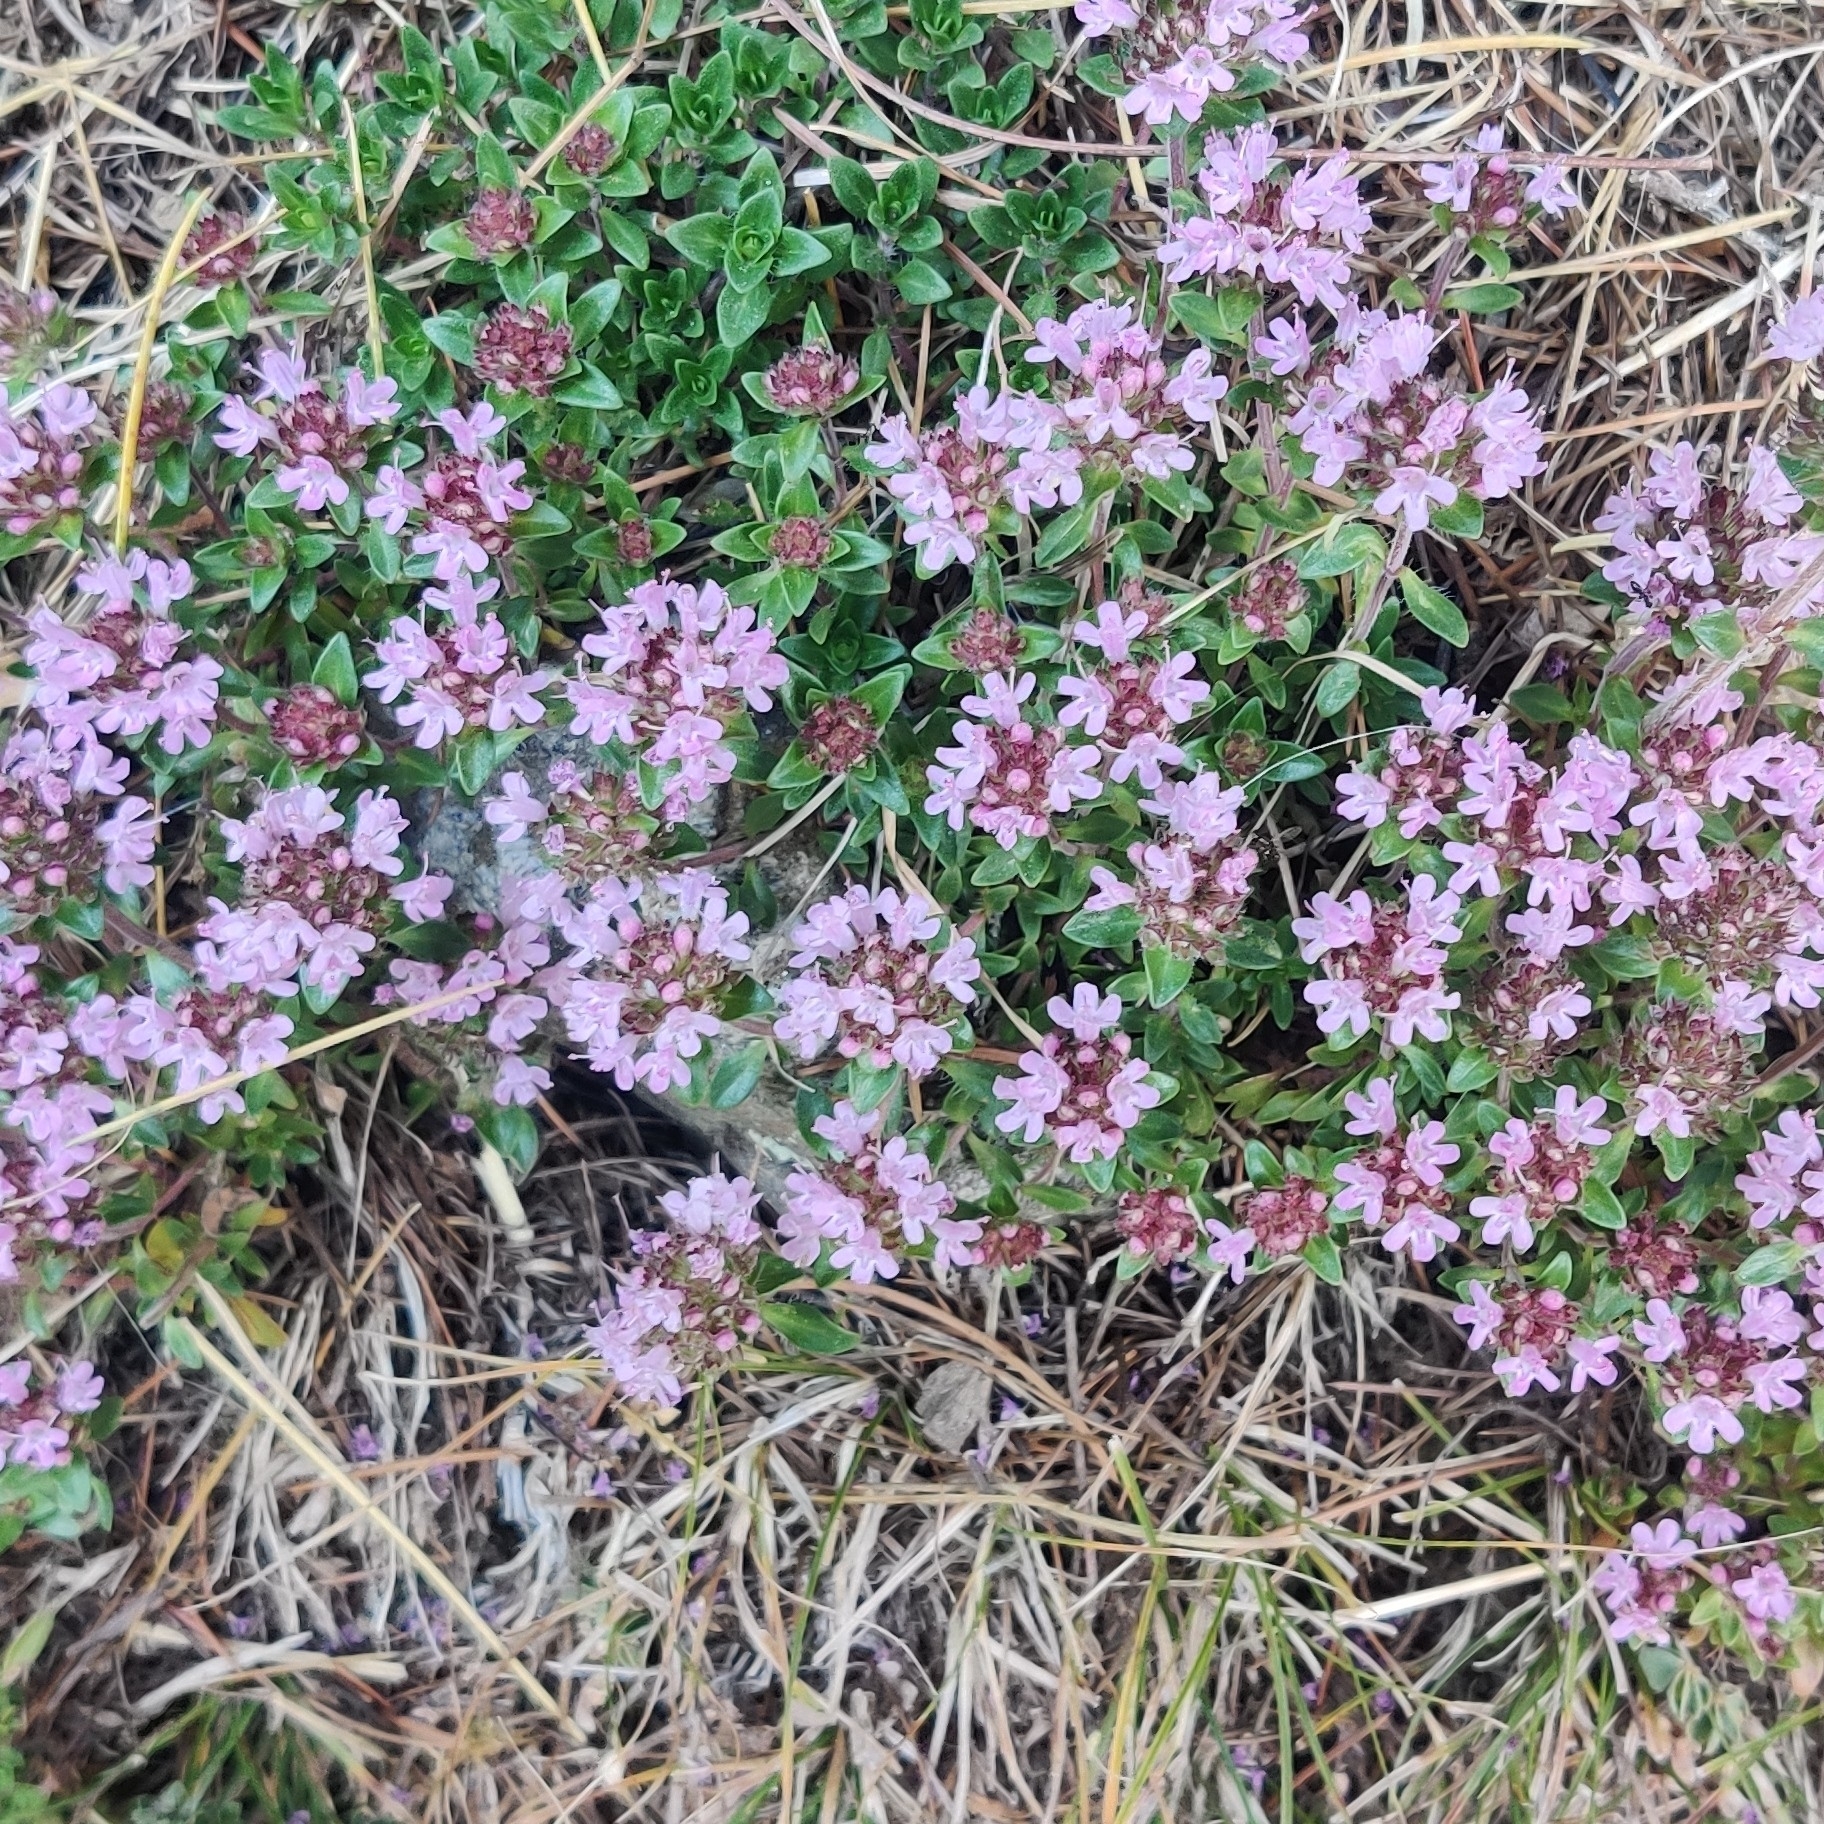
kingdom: Plantae
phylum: Tracheophyta
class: Magnoliopsida
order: Lamiales
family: Lamiaceae
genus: Thymus
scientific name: Thymus linearis
